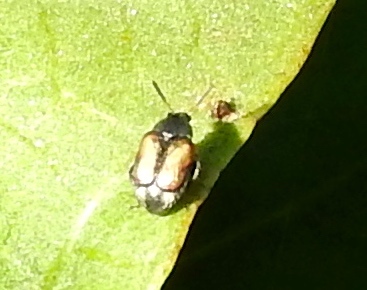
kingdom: Animalia
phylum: Arthropoda
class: Insecta
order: Coleoptera
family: Bruchidae
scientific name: Bruchidae
